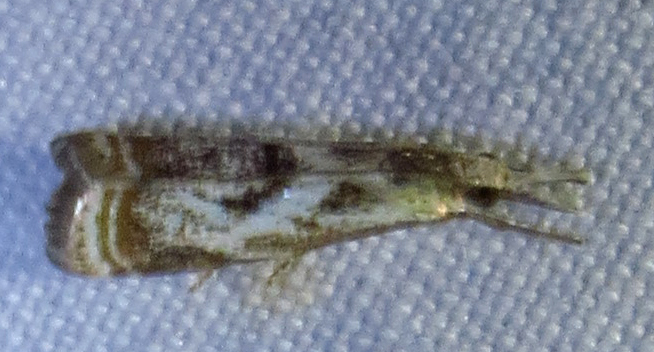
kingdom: Animalia
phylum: Arthropoda
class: Insecta
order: Lepidoptera
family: Crambidae
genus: Microcrambus
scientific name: Microcrambus elegans
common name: Elegant grass-veneer
